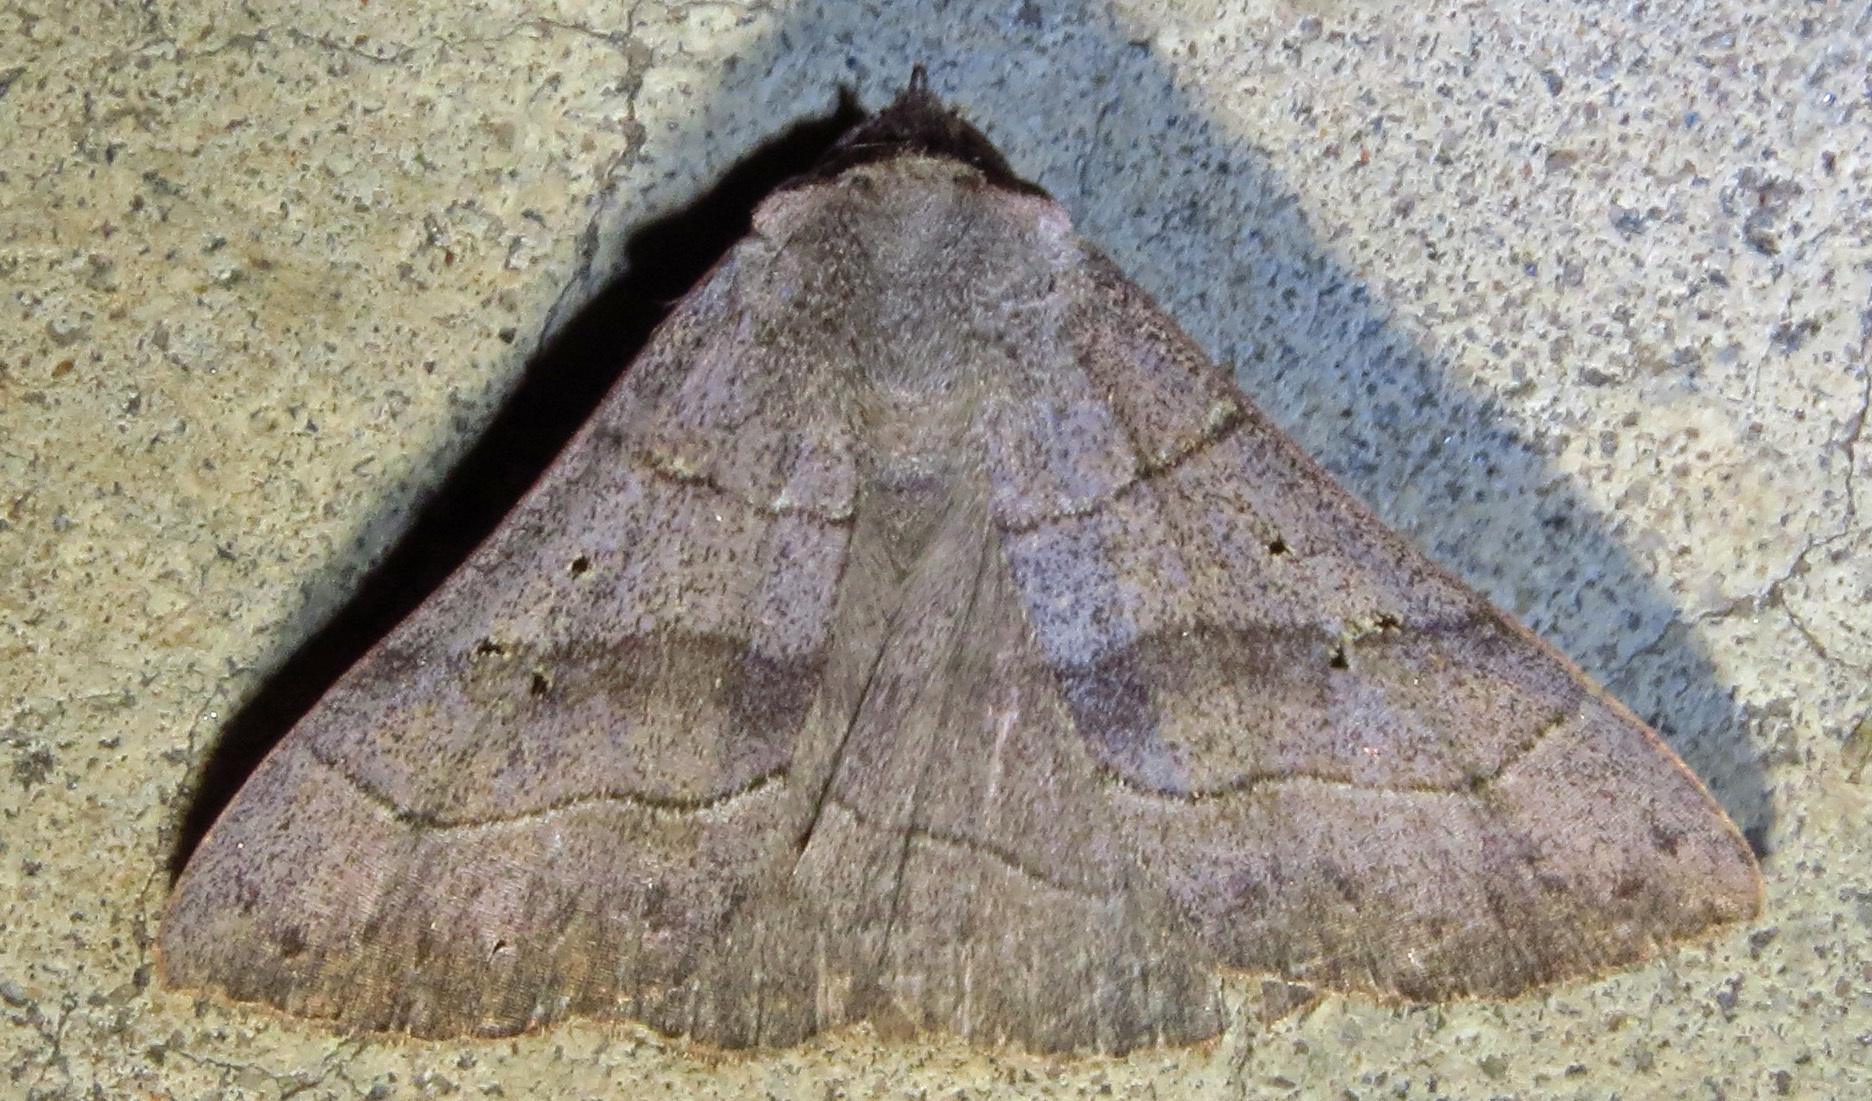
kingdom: Animalia
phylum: Arthropoda
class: Insecta
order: Lepidoptera
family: Erebidae
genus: Panopoda
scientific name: Panopoda carneicosta
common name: Brown panopoda moth
